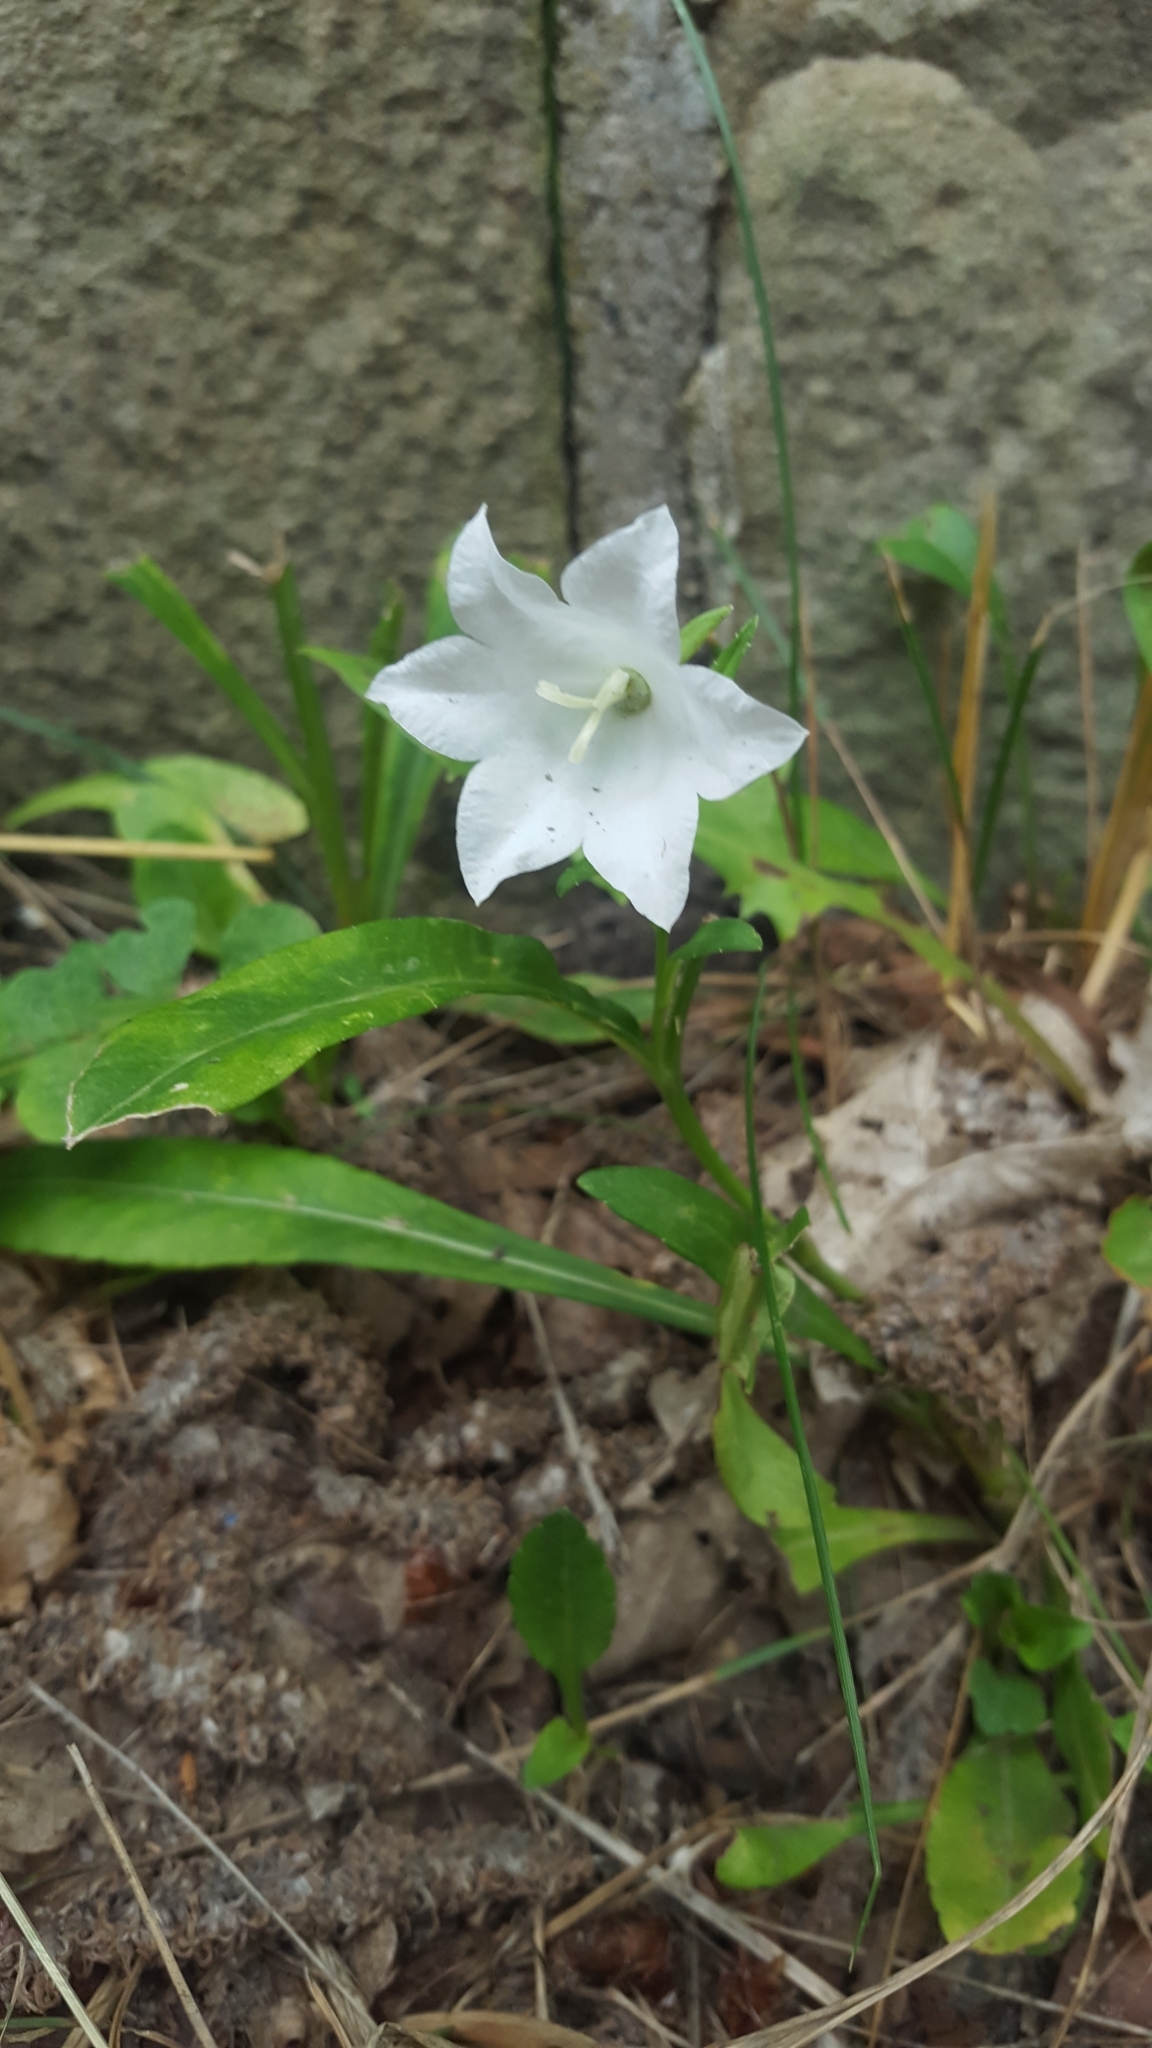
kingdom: Plantae
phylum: Tracheophyta
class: Magnoliopsida
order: Asterales
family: Campanulaceae
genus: Campanula
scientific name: Campanula persicifolia
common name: Peach-leaved bellflower
